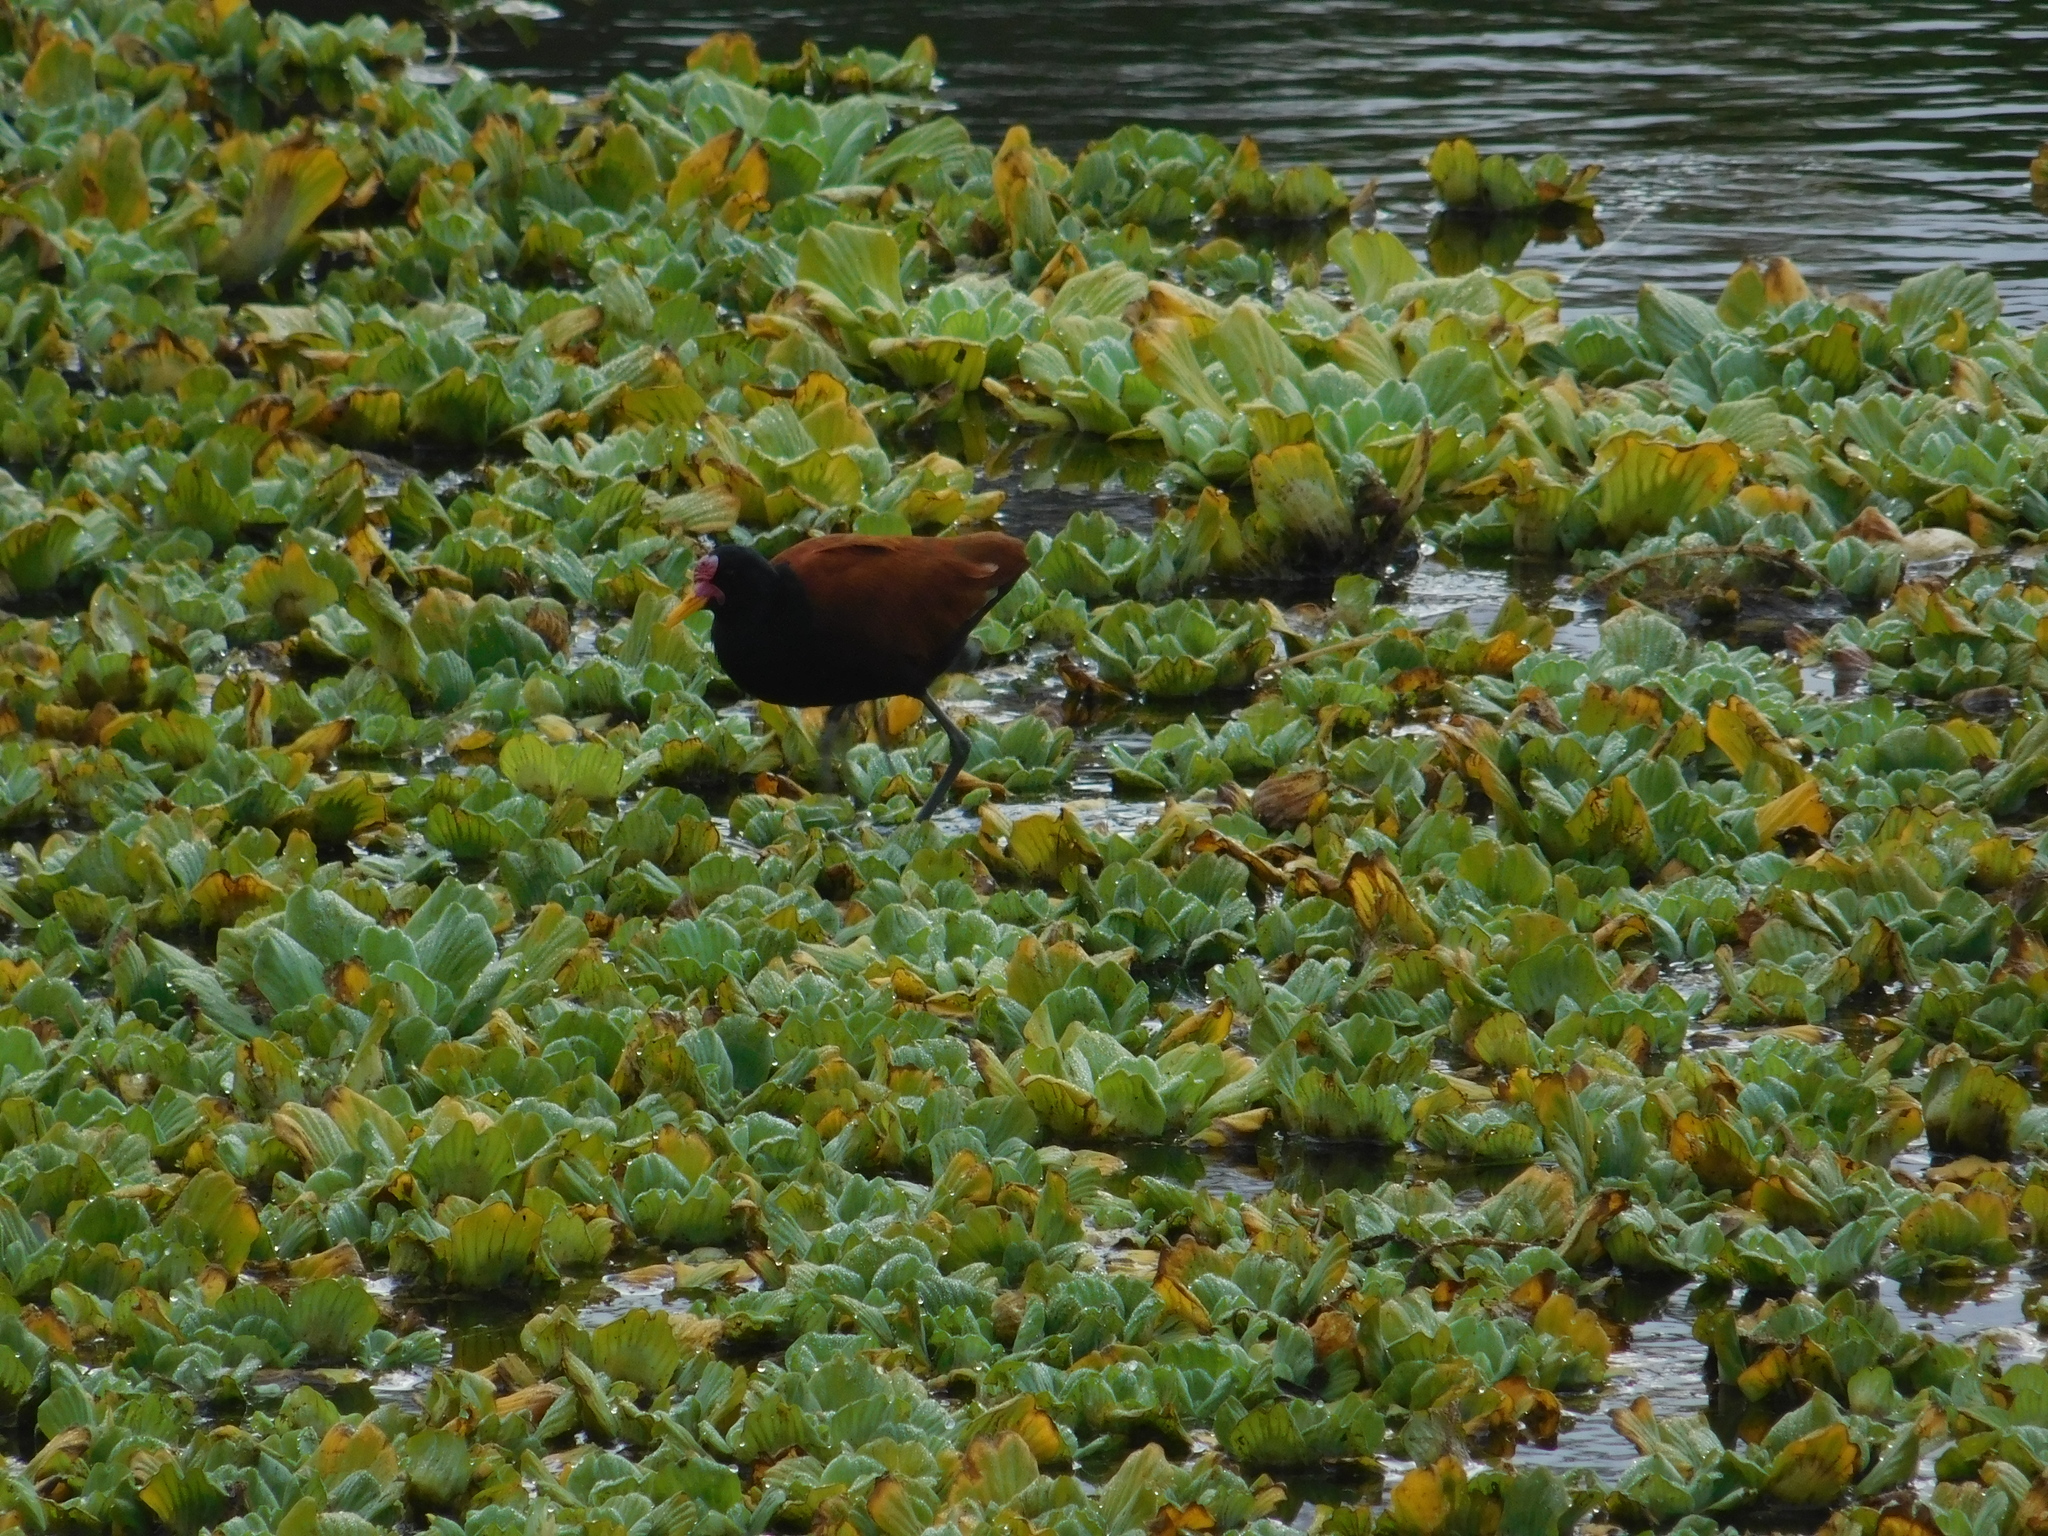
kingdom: Animalia
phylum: Chordata
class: Aves
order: Charadriiformes
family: Jacanidae
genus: Jacana
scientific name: Jacana jacana
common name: Wattled jacana
